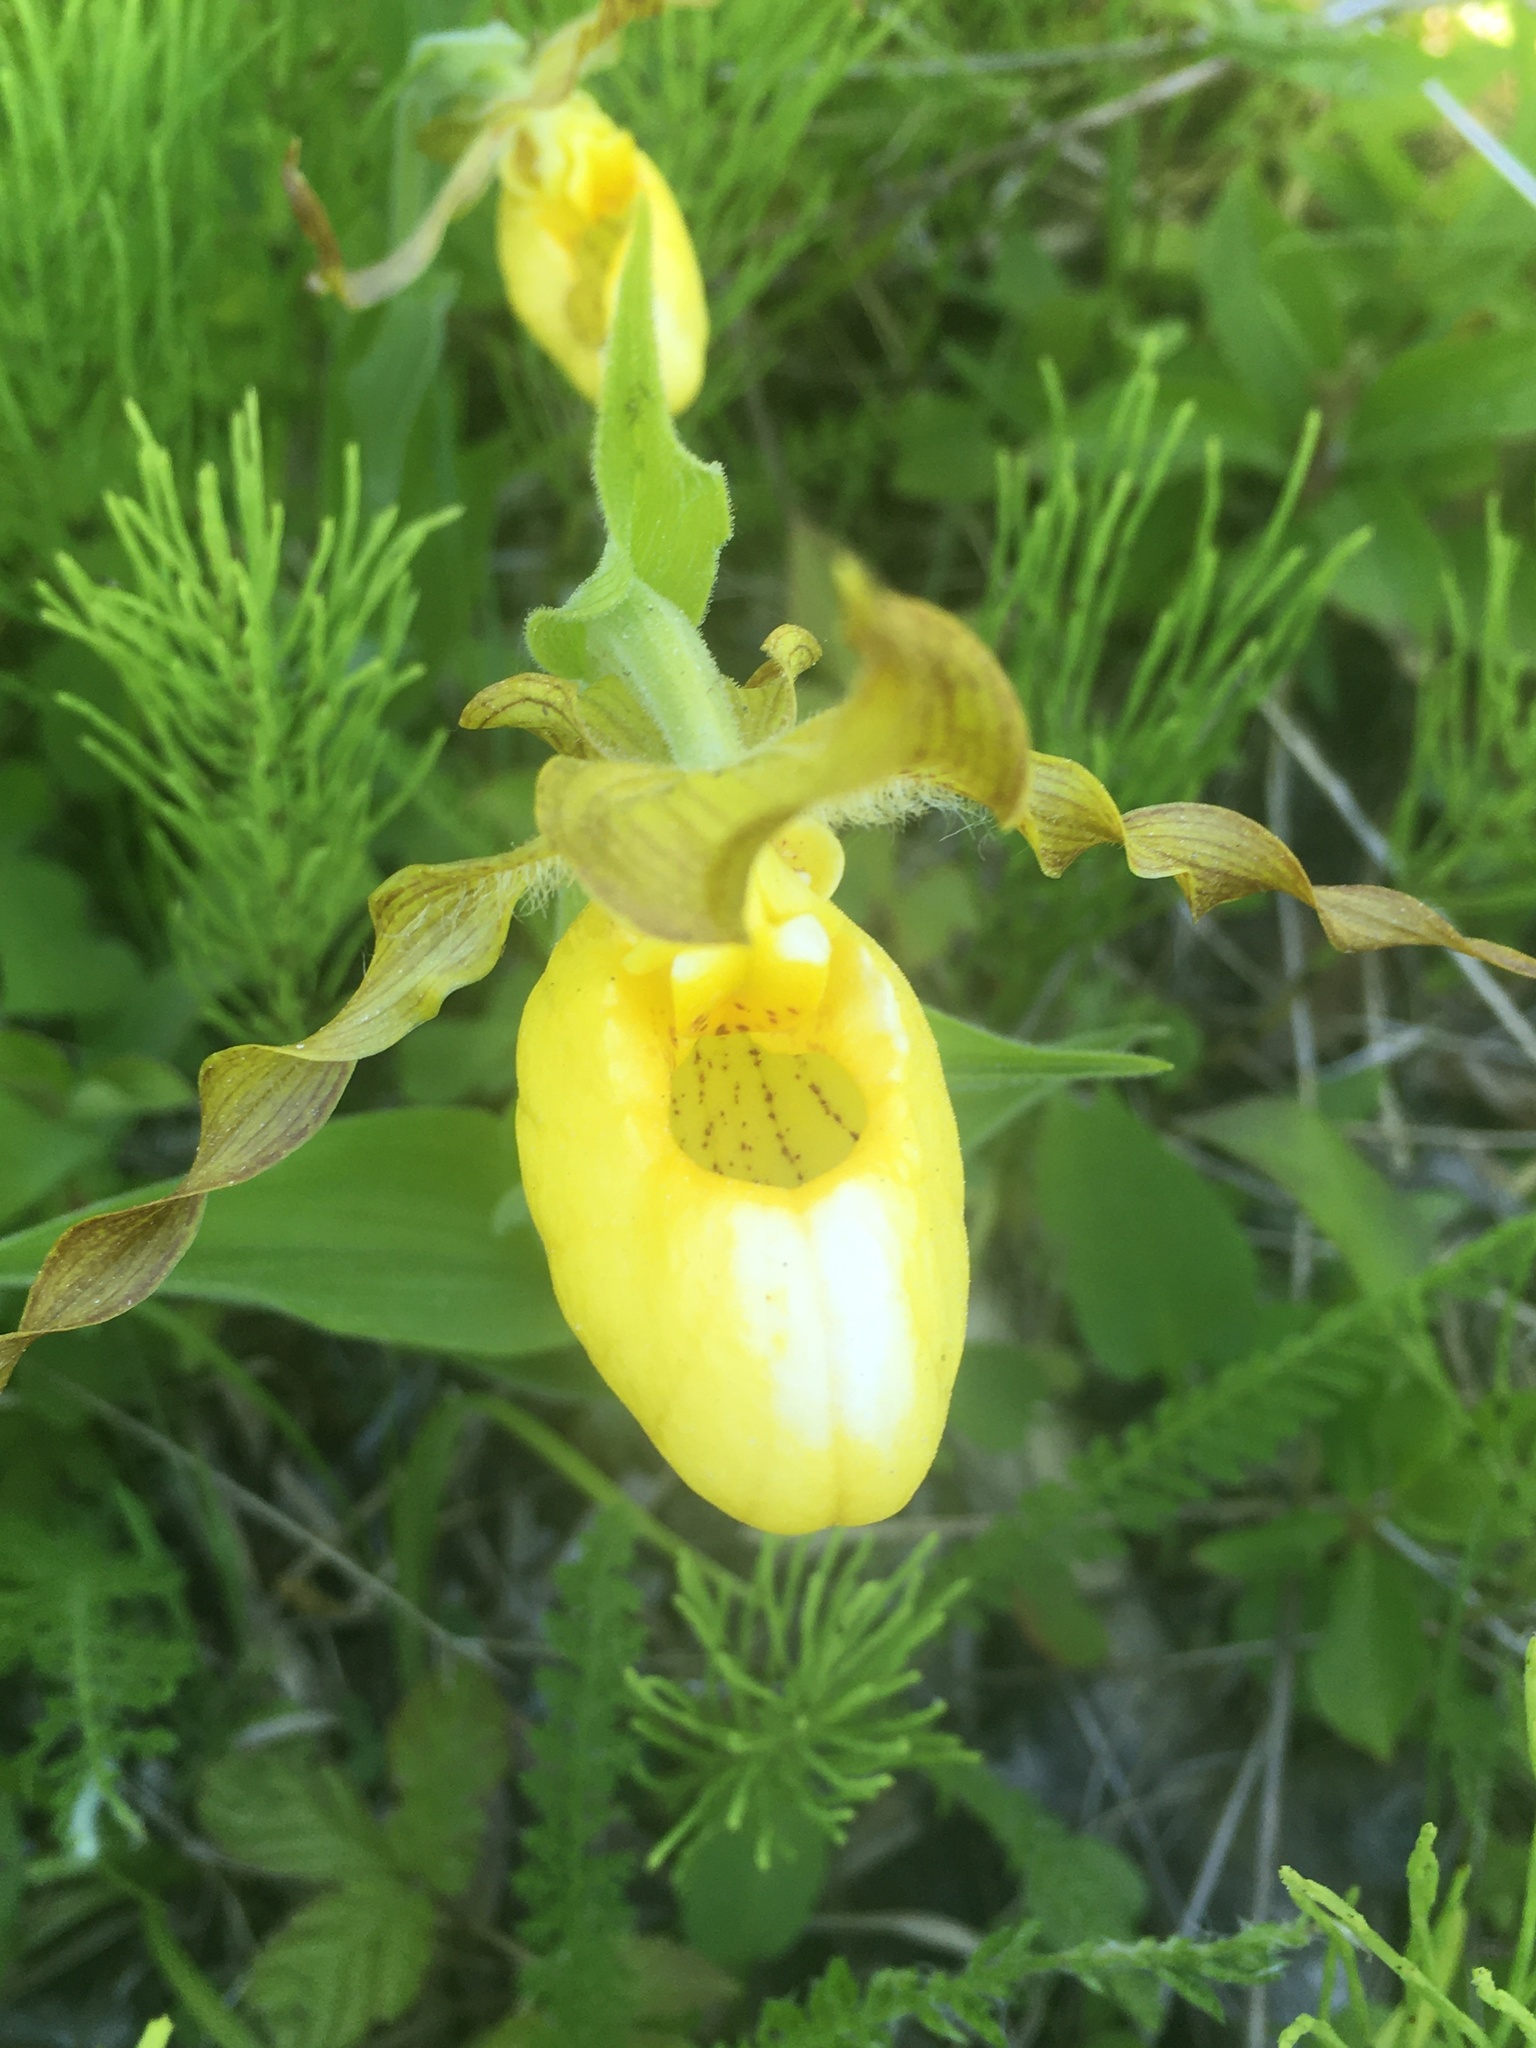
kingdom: Plantae
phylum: Tracheophyta
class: Liliopsida
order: Asparagales
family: Orchidaceae
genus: Cypripedium
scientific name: Cypripedium parviflorum
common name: American yellow lady's-slipper
